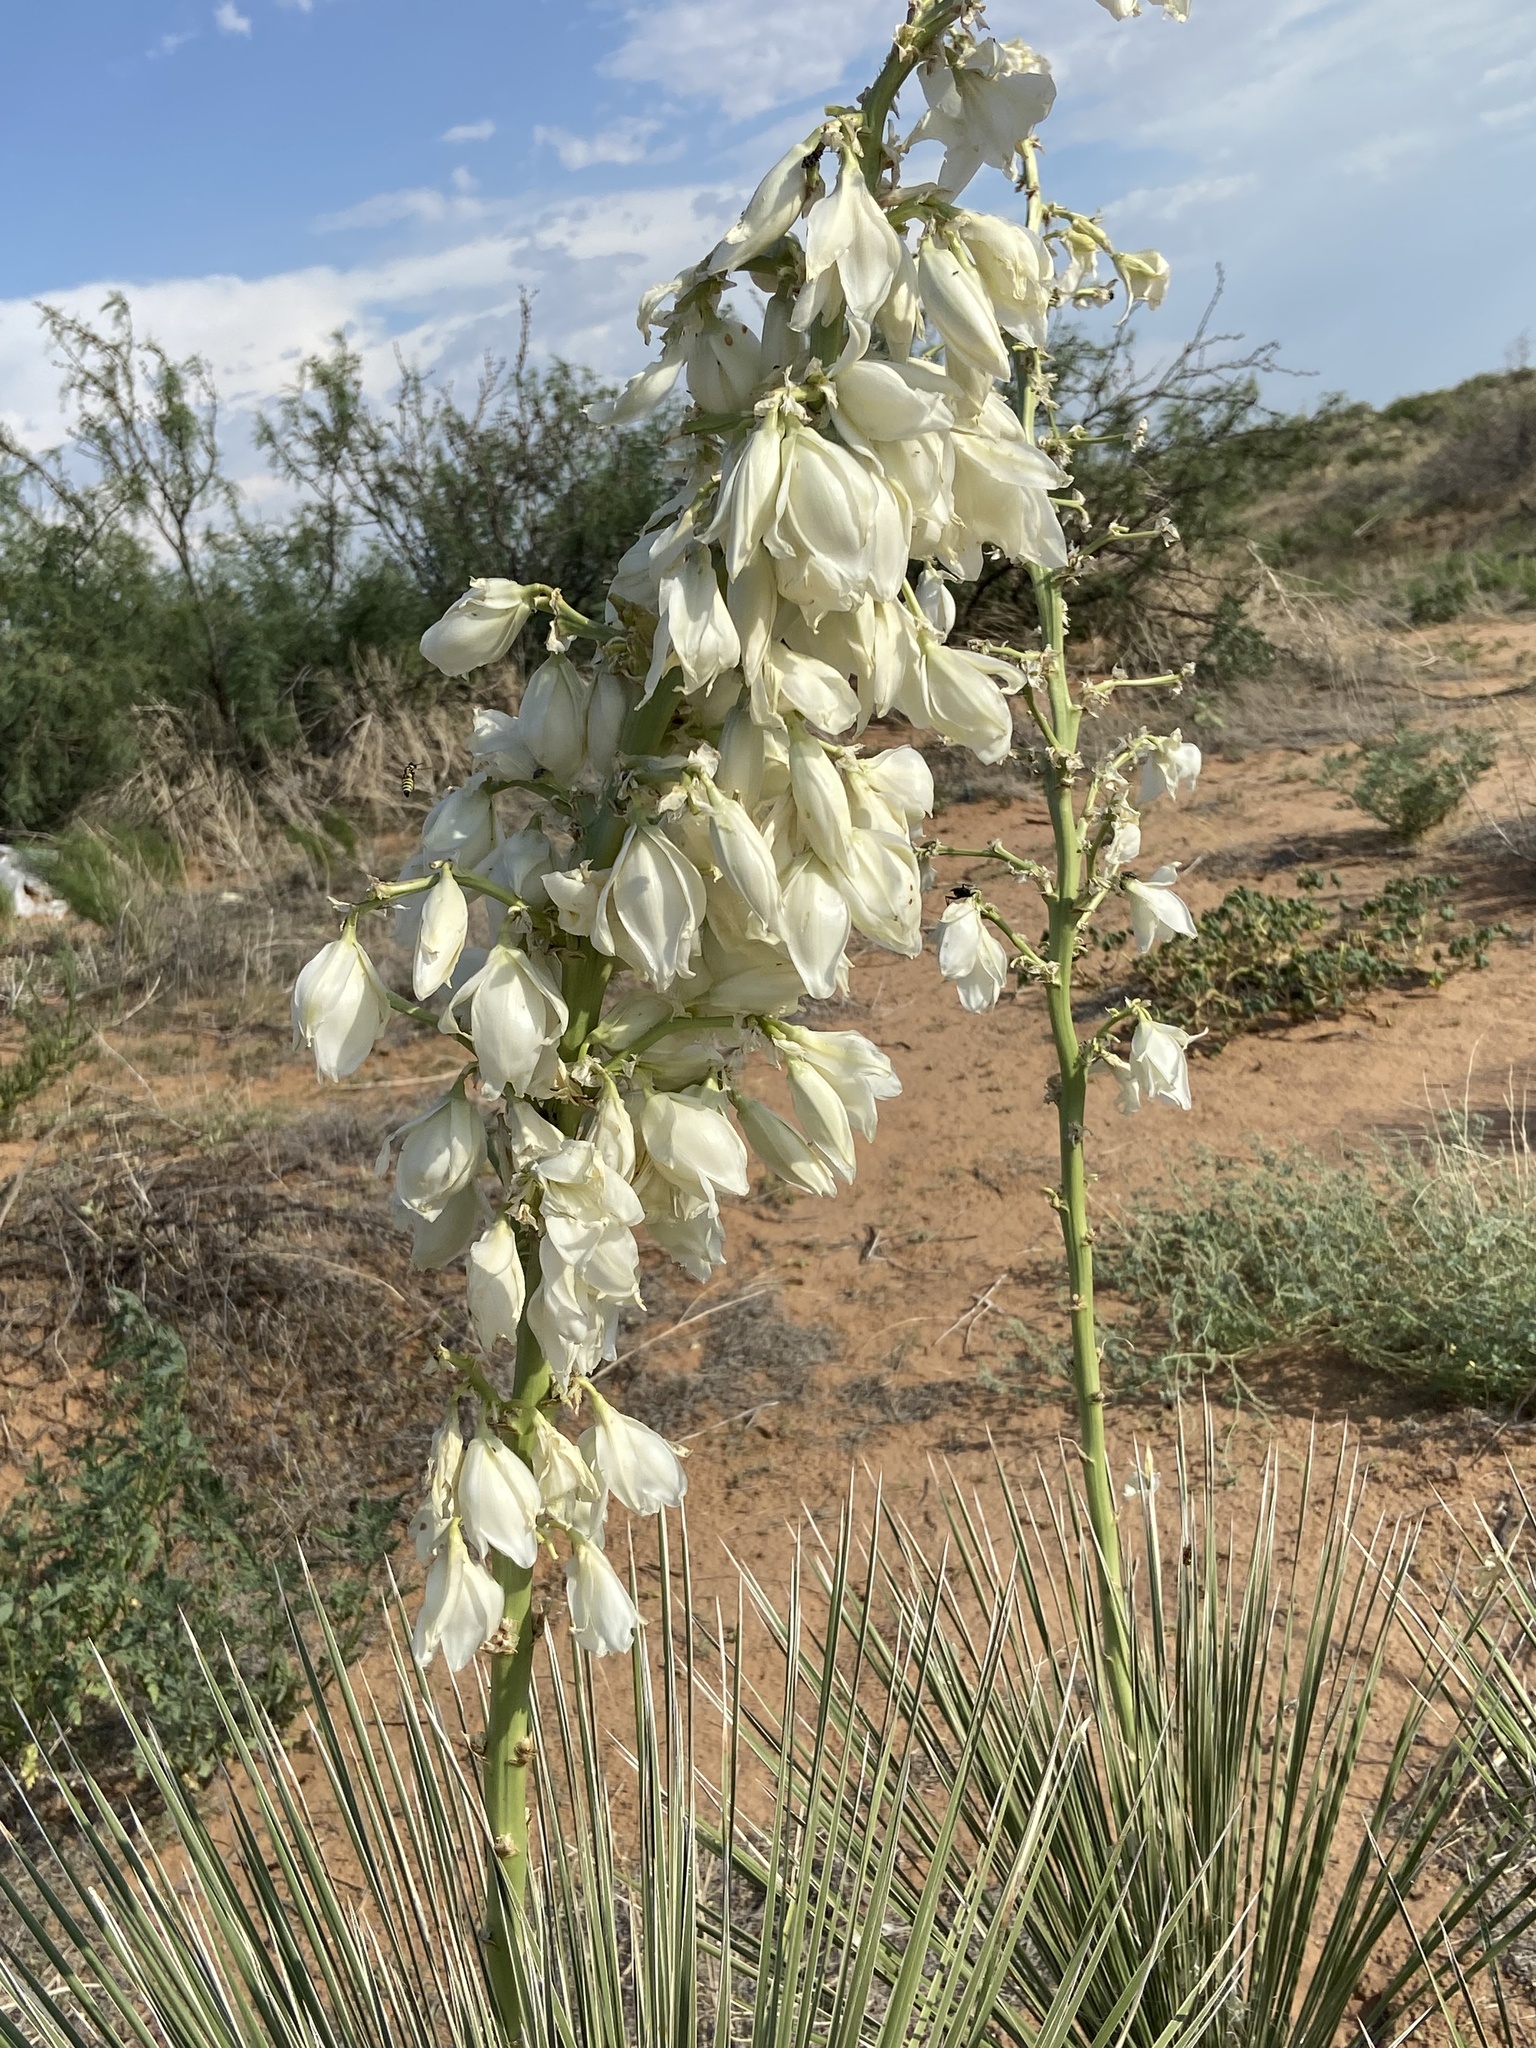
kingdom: Plantae
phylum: Tracheophyta
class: Liliopsida
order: Asparagales
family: Asparagaceae
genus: Yucca
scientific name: Yucca elata
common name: Palmella
